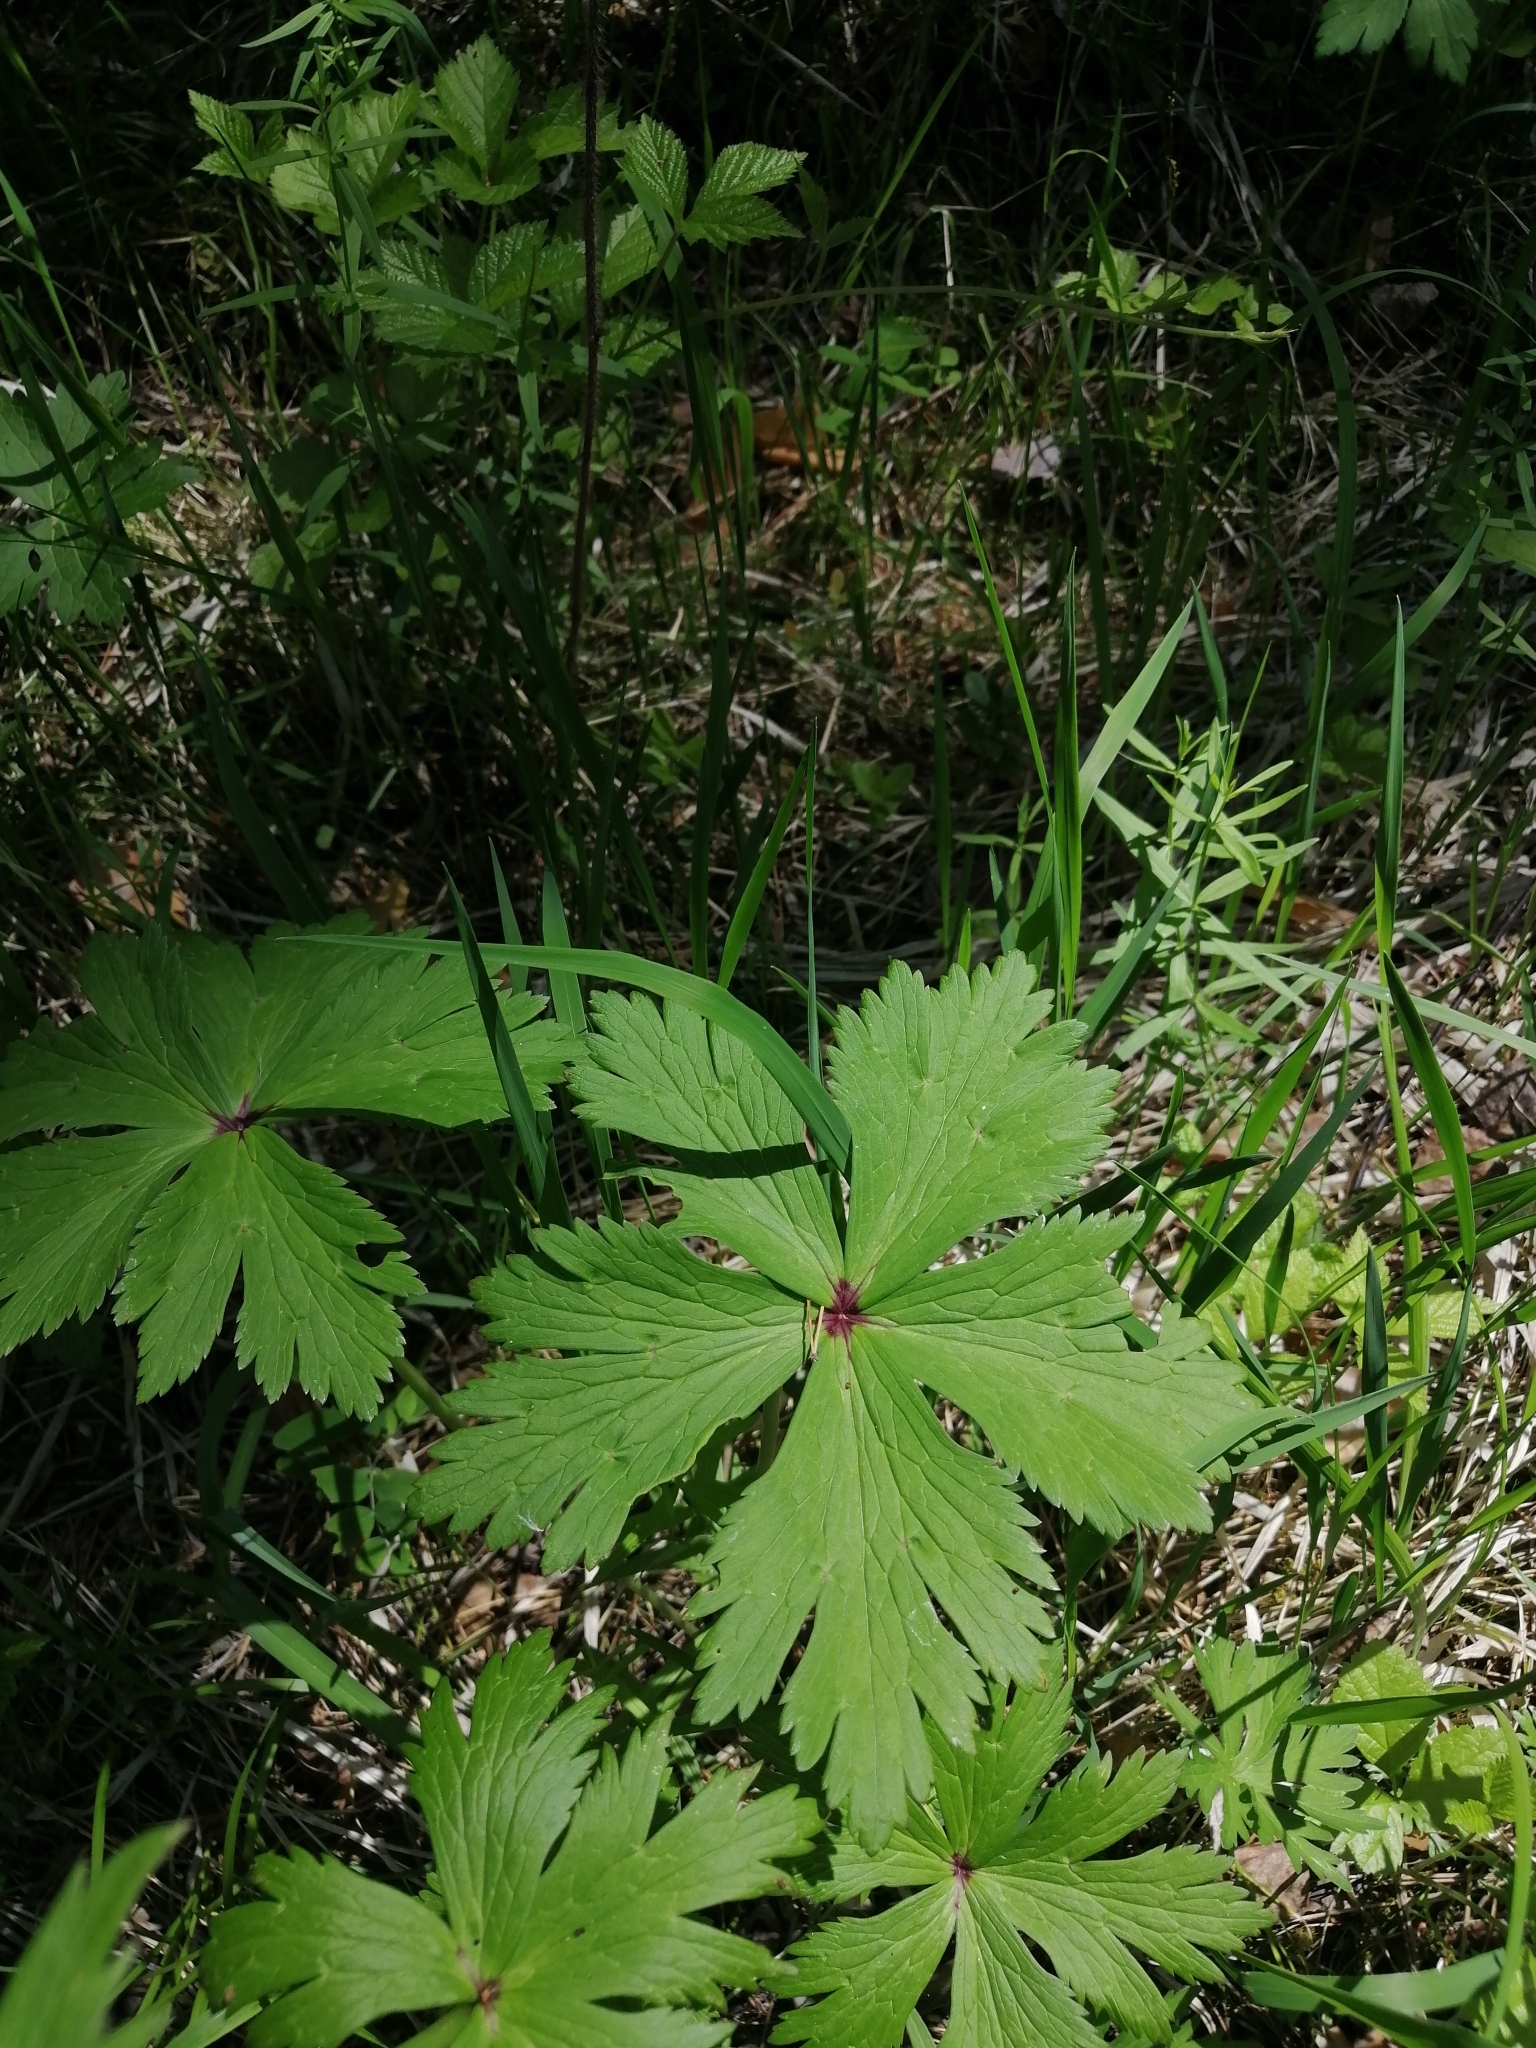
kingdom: Plantae
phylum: Tracheophyta
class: Magnoliopsida
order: Ranunculales
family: Ranunculaceae
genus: Trollius
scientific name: Trollius asiaticus
